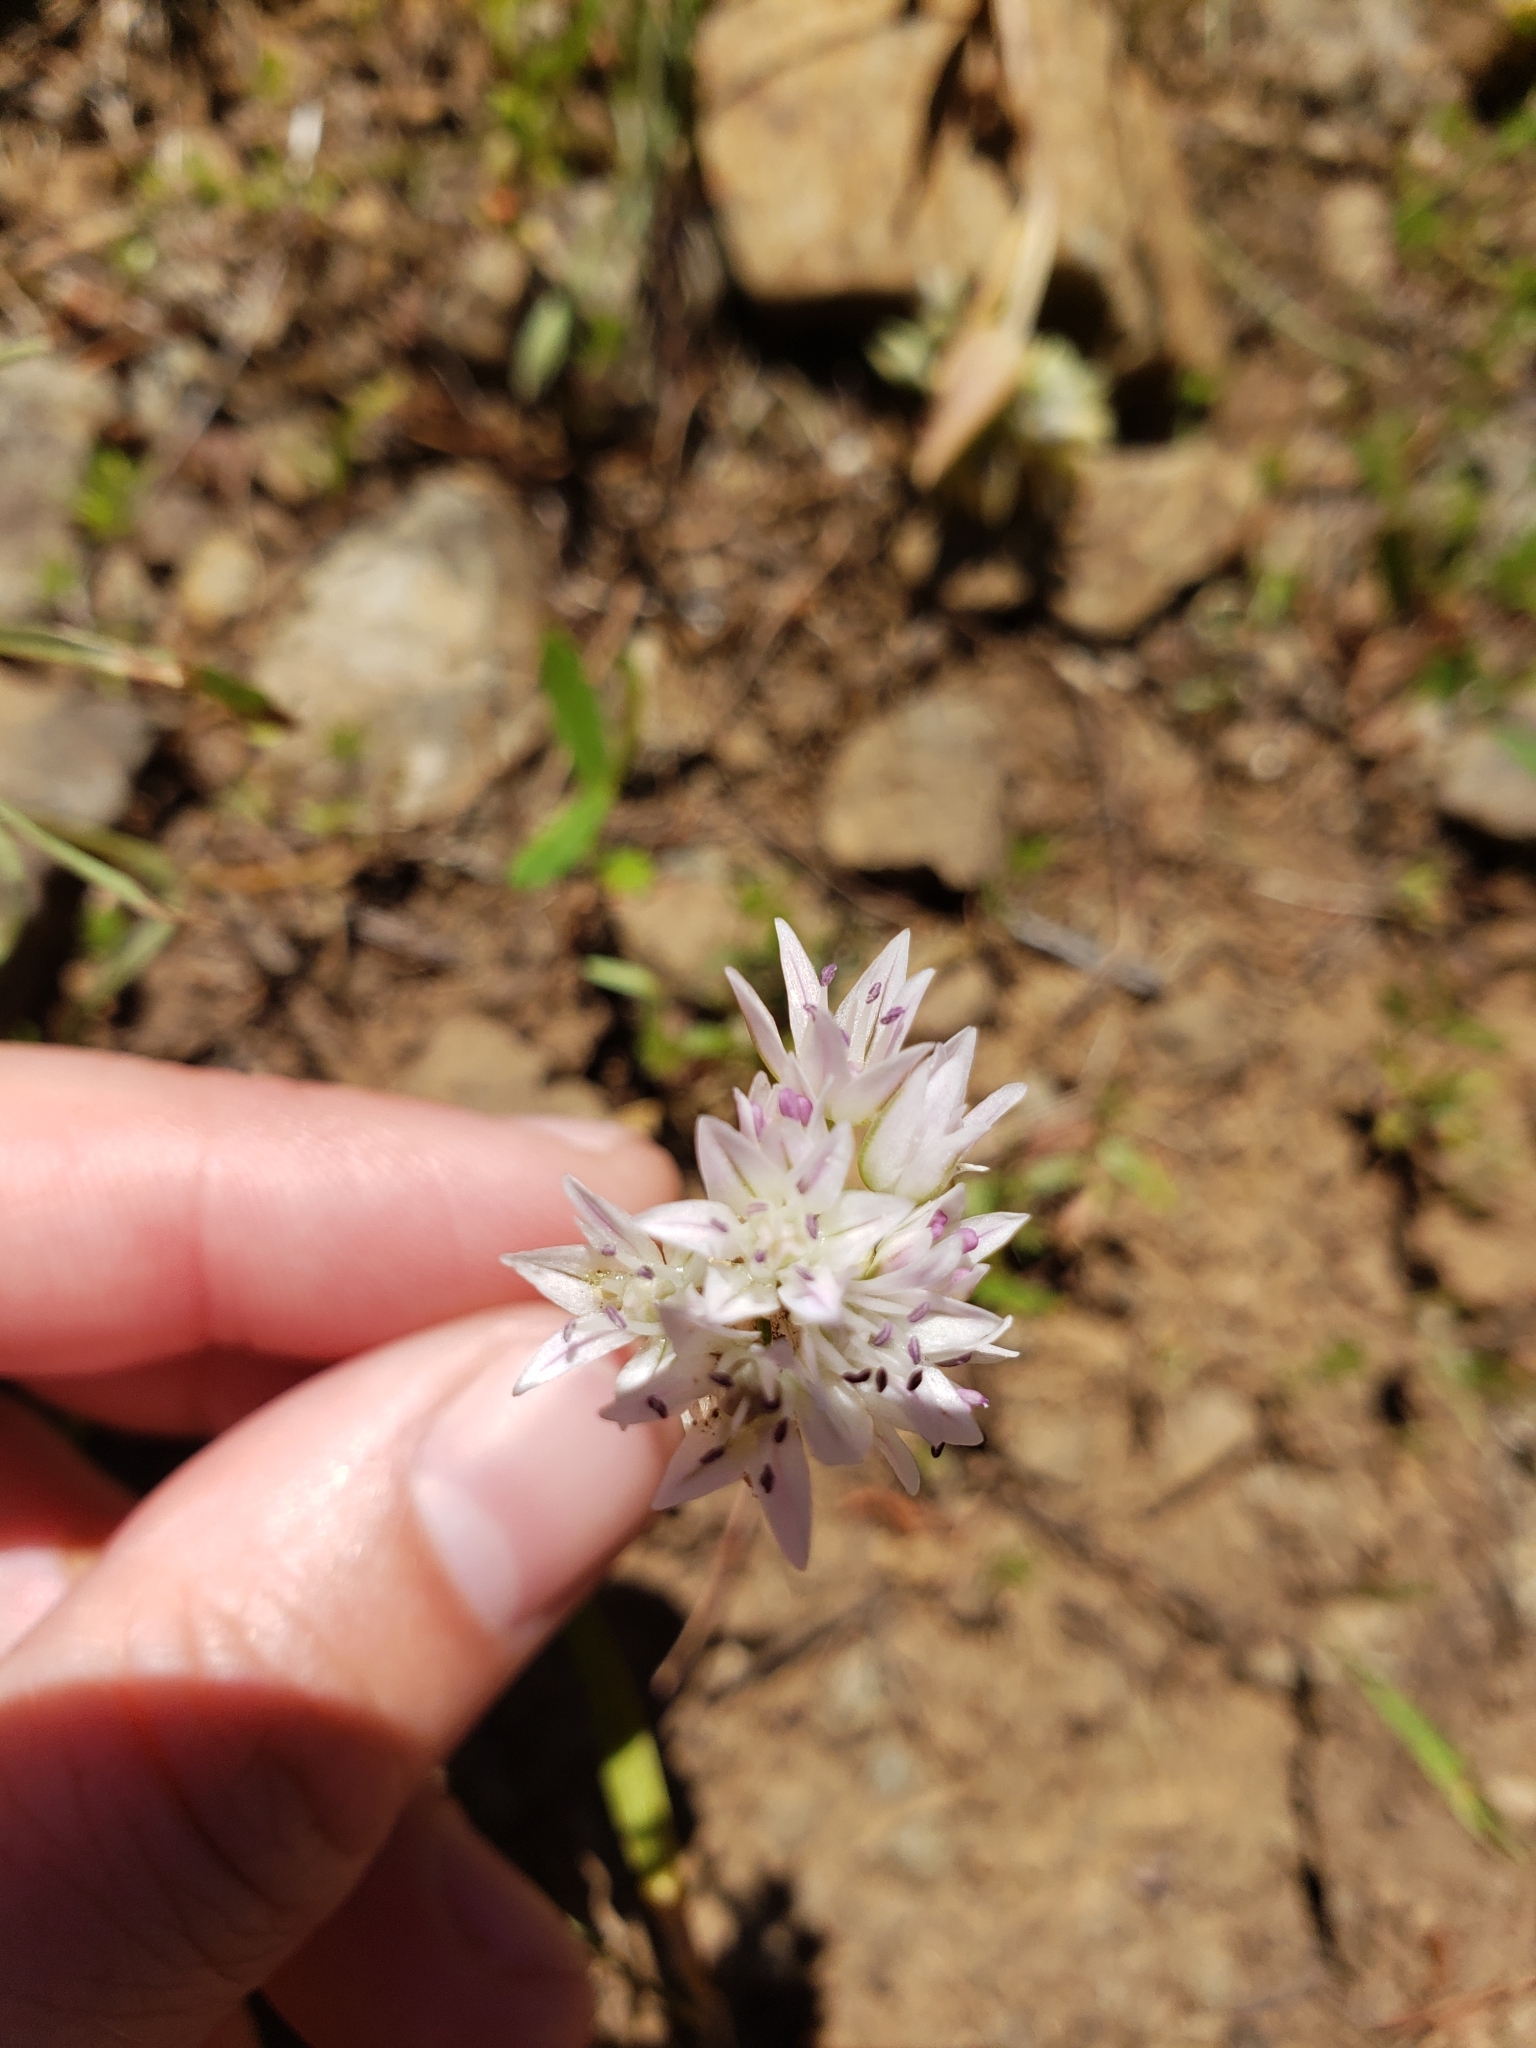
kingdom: Plantae
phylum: Tracheophyta
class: Liliopsida
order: Asparagales
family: Amaryllidaceae
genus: Allium
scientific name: Allium fibrillum
